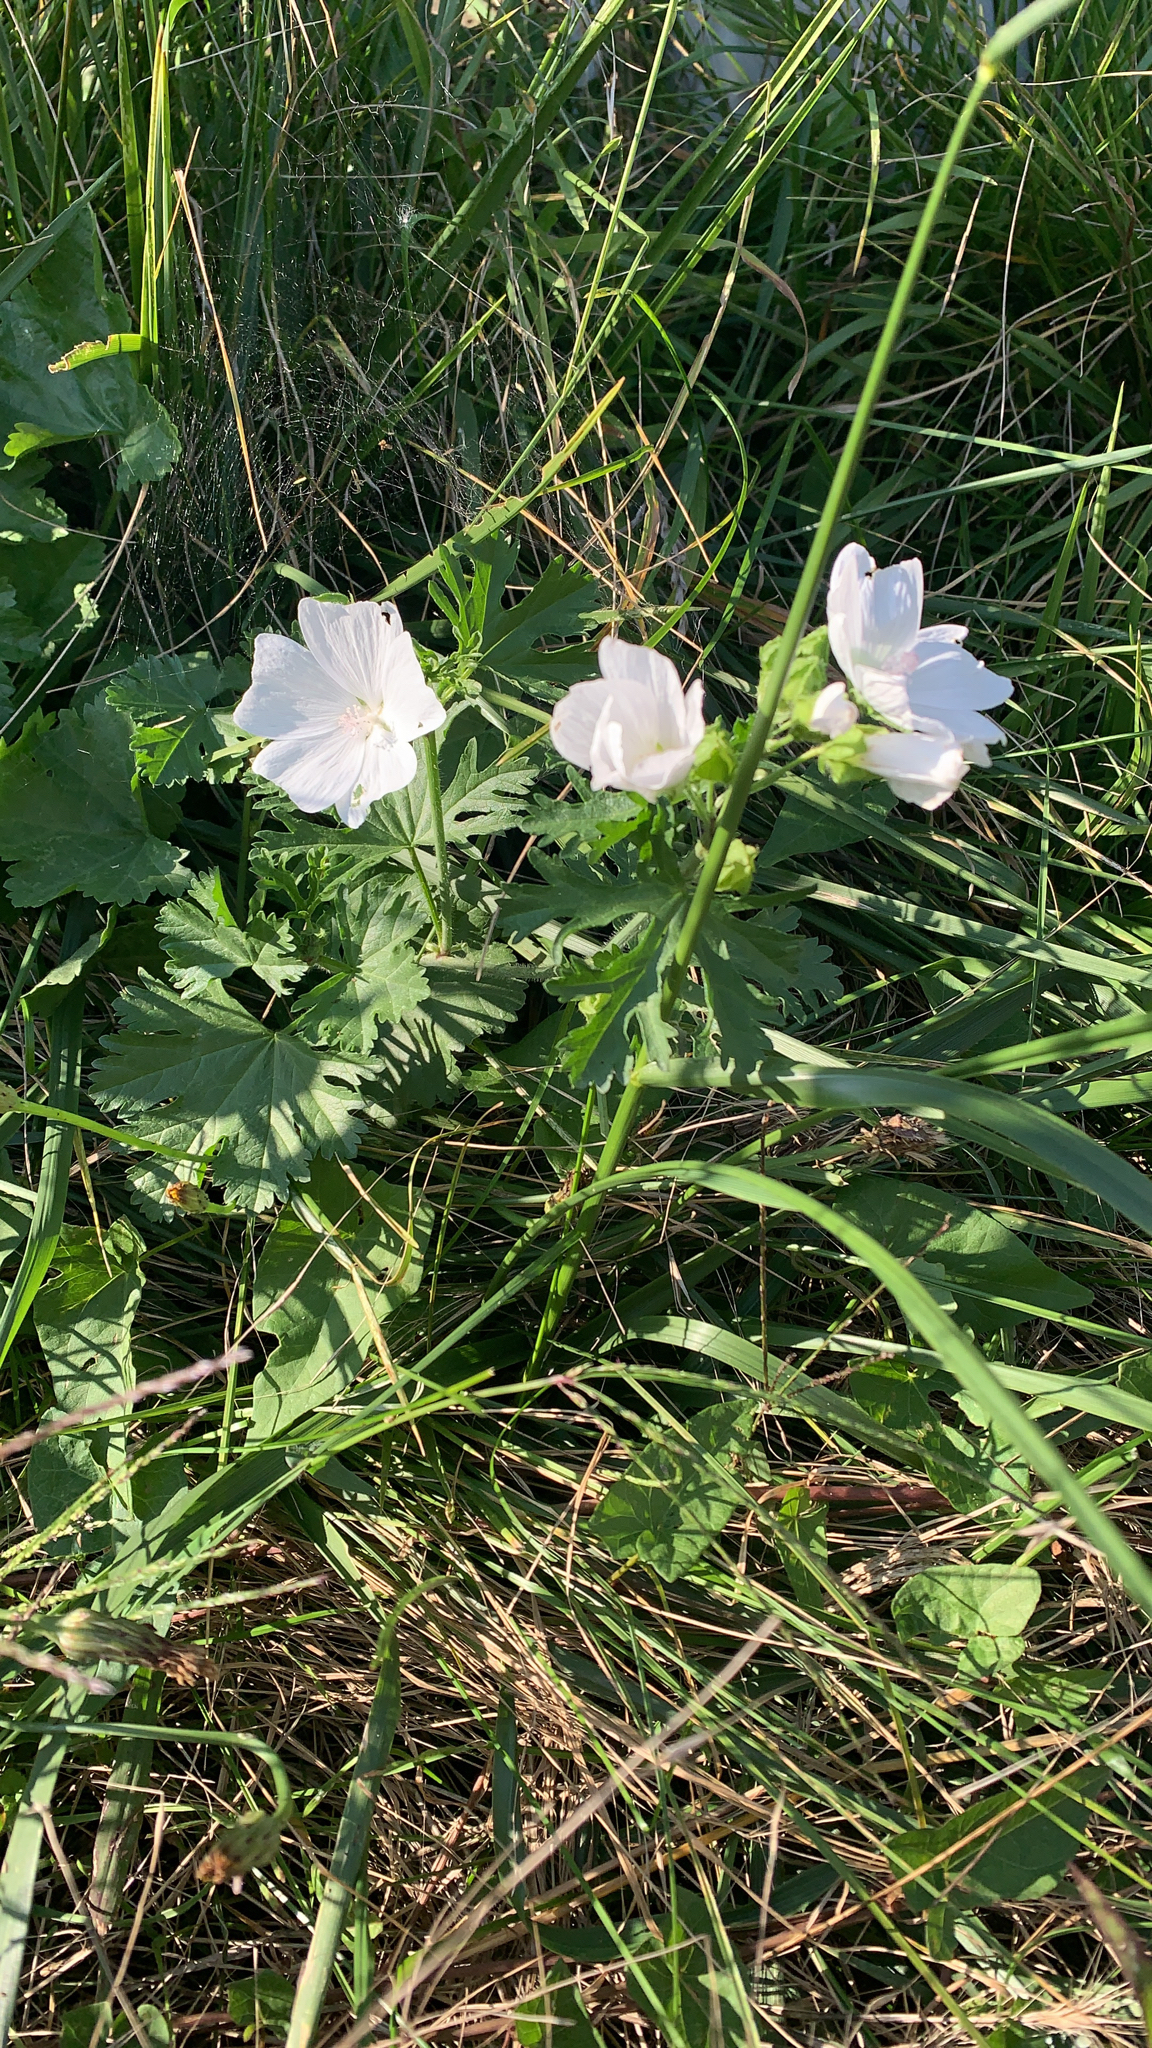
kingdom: Plantae
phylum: Tracheophyta
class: Magnoliopsida
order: Malvales
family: Malvaceae
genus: Malva
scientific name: Malva moschata
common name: Musk mallow
